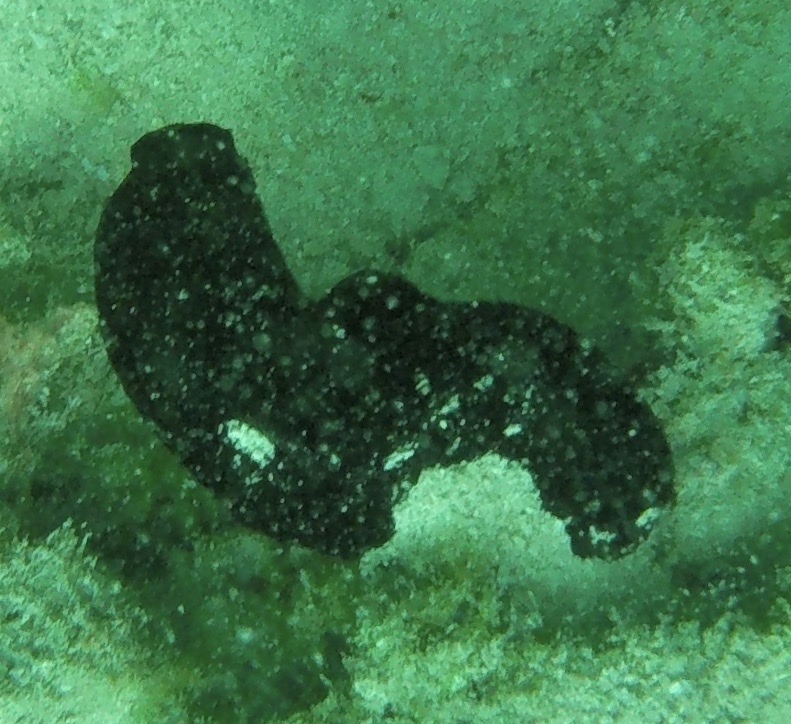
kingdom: Animalia
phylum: Chordata
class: Ascidiacea
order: Phlebobranchia
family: Ascidiidae
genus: Phallusia
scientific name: Phallusia nigra
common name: Black tunicate
